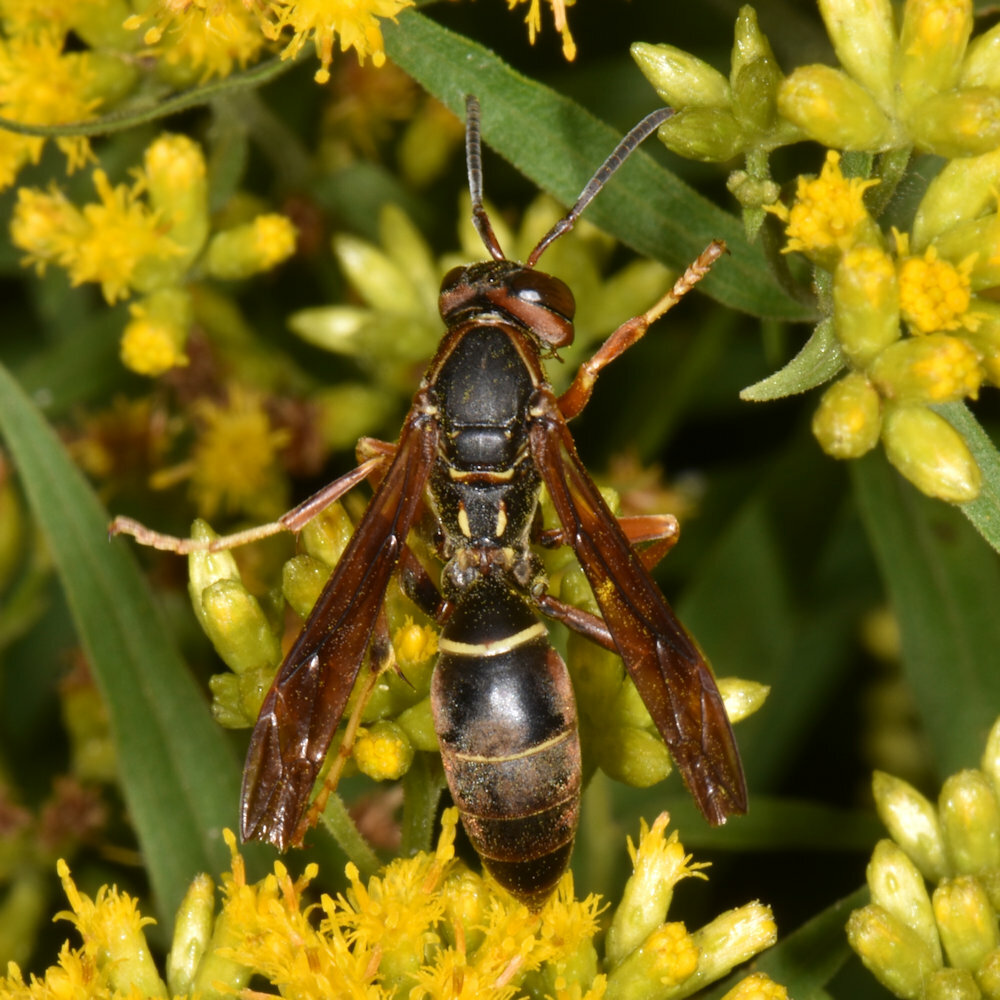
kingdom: Animalia
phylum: Arthropoda
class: Insecta
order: Hymenoptera
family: Eumenidae
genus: Polistes
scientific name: Polistes fuscatus
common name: Dark paper wasp
